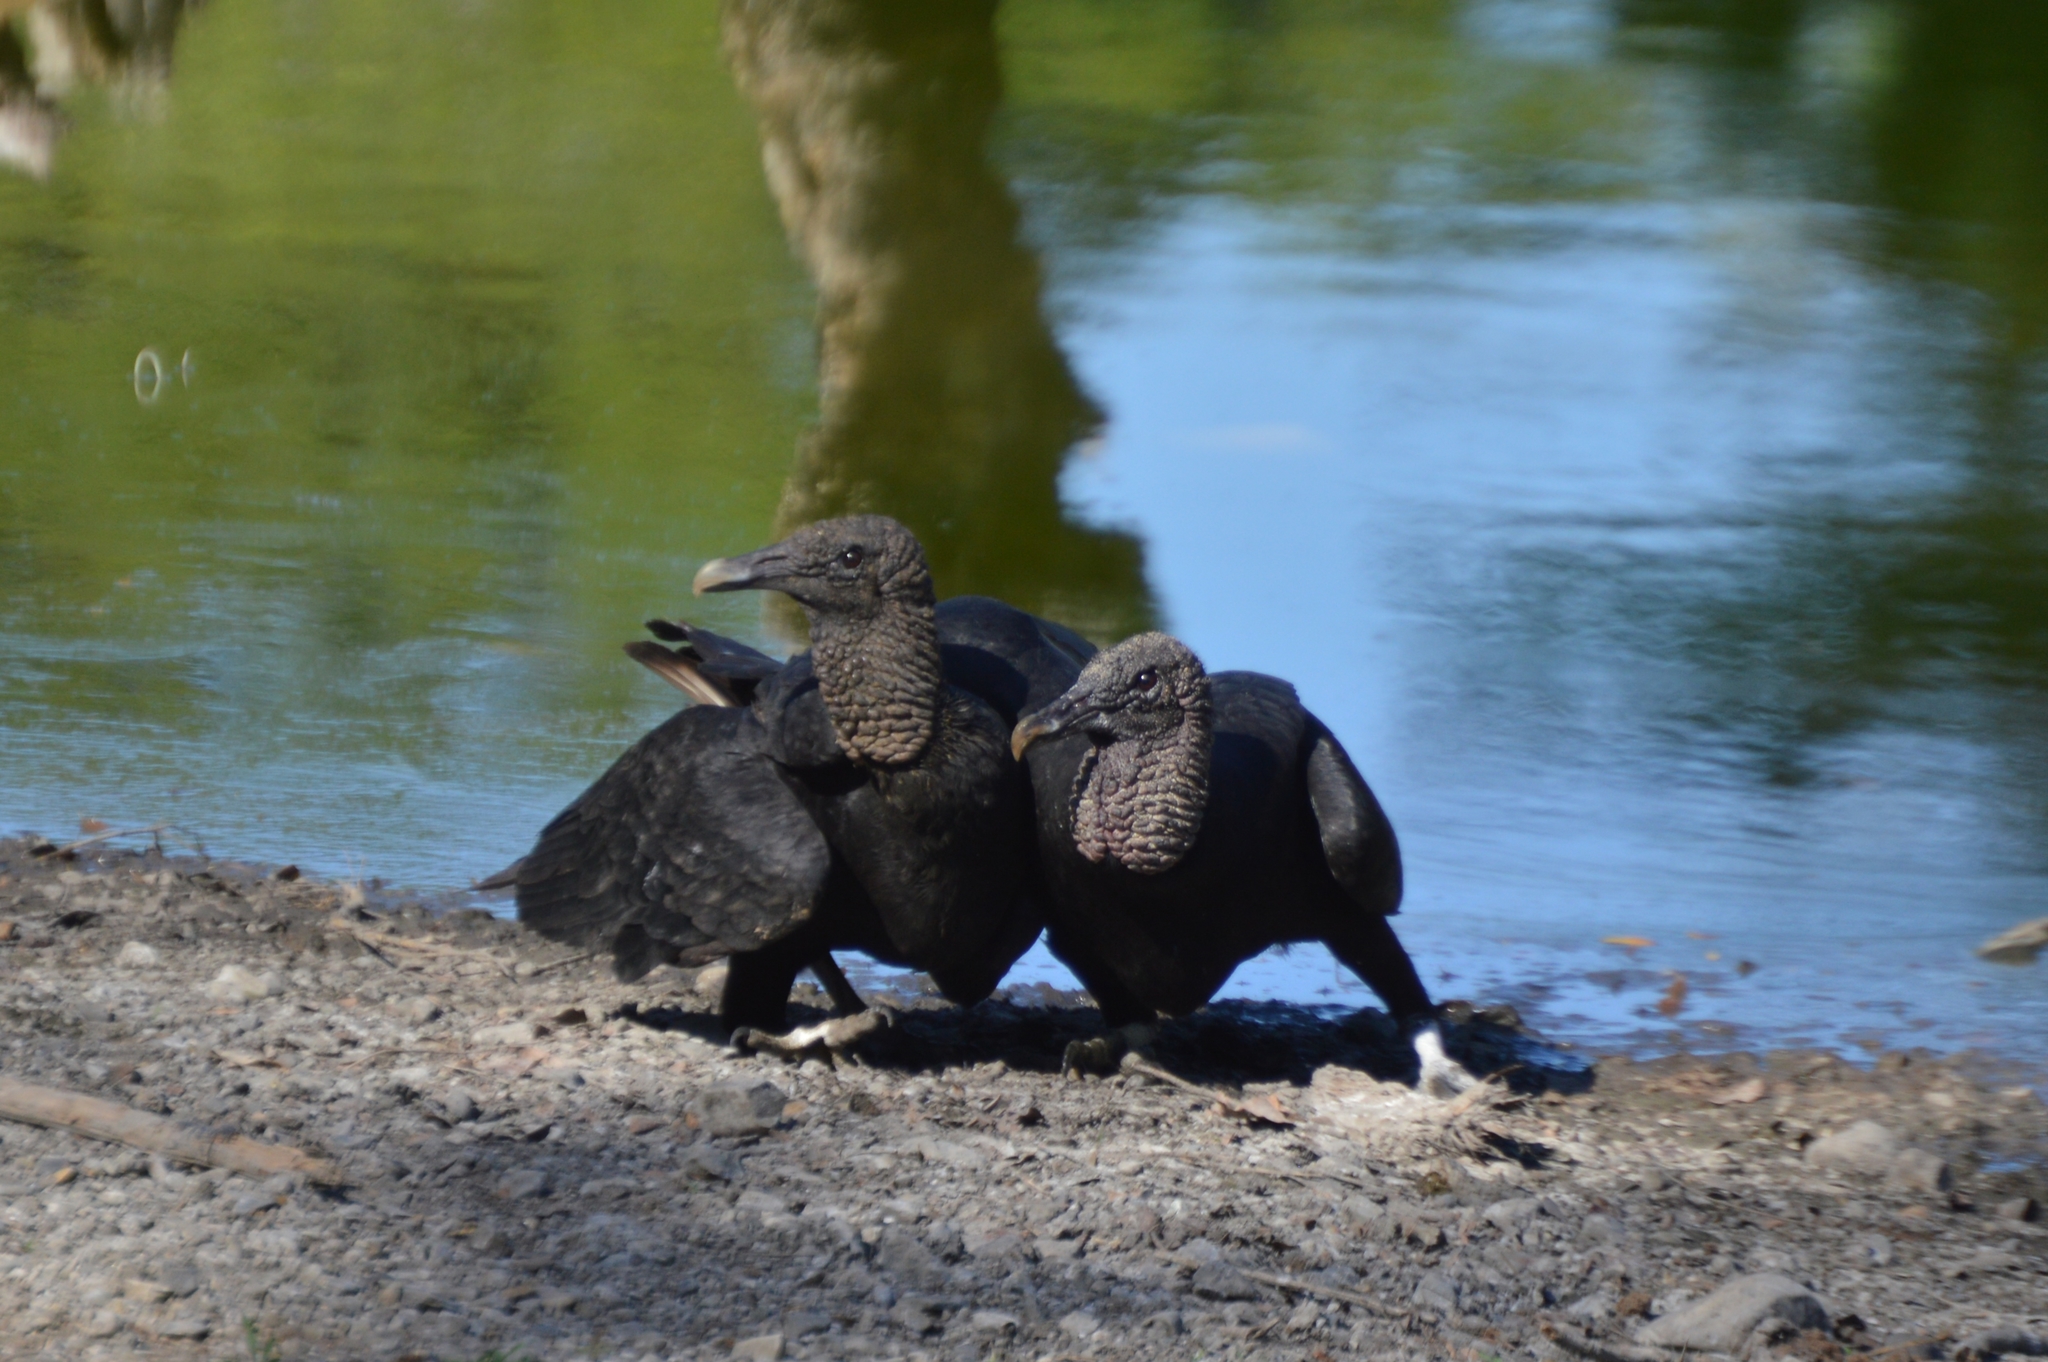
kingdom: Animalia
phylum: Chordata
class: Aves
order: Accipitriformes
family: Cathartidae
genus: Coragyps
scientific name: Coragyps atratus
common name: Black vulture
